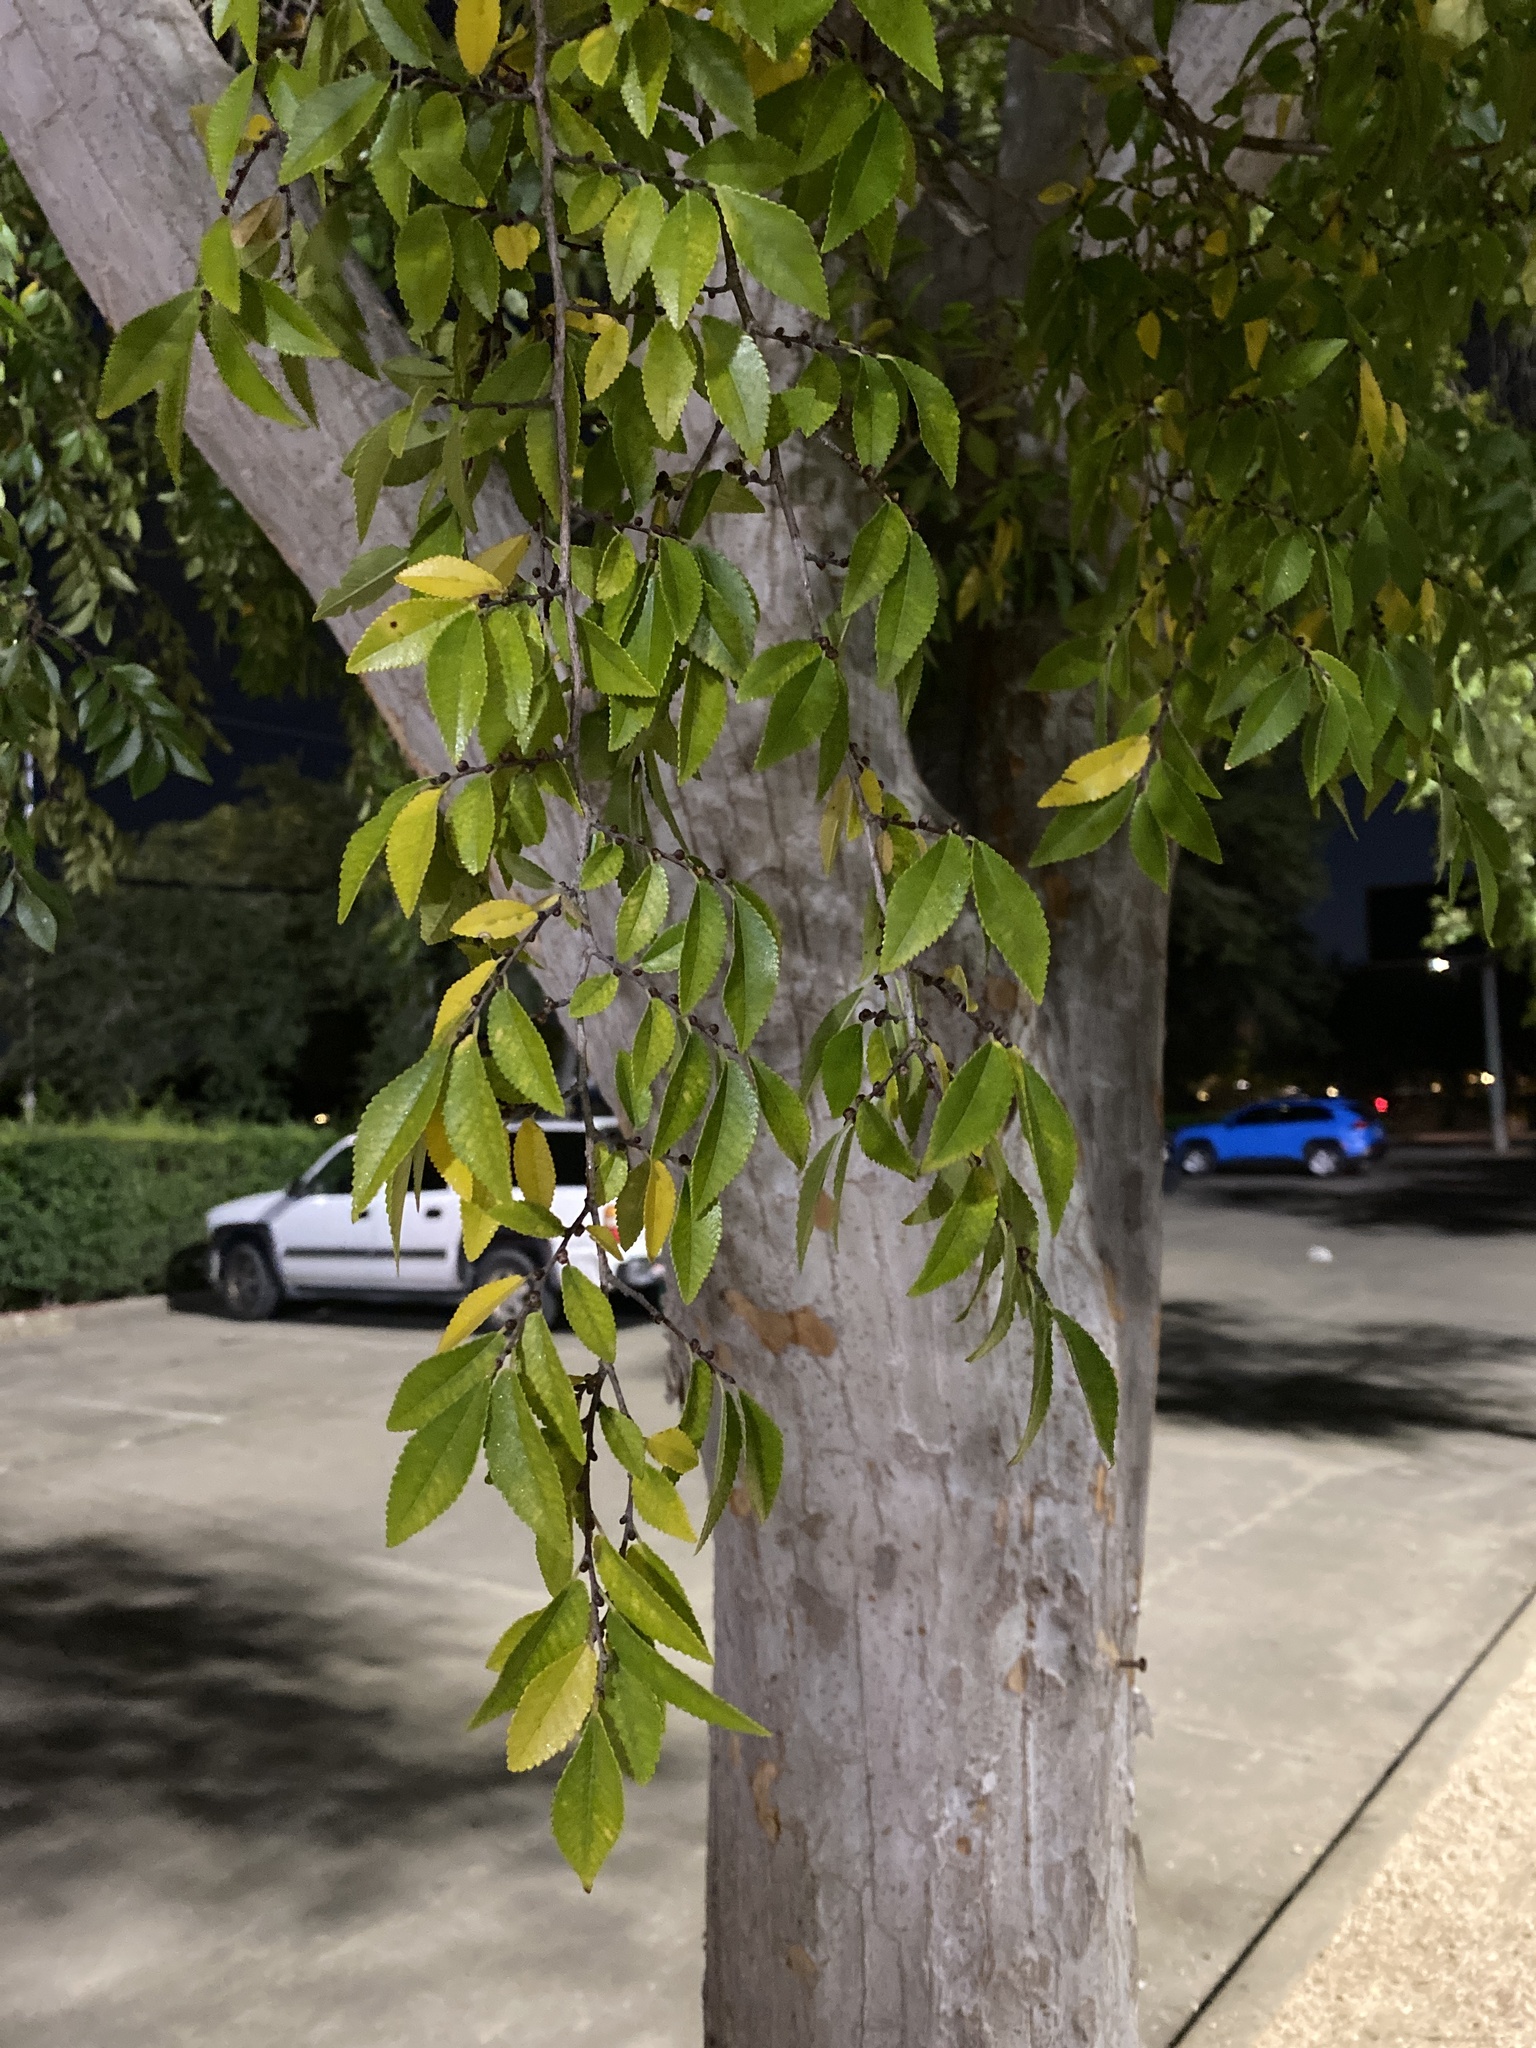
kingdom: Plantae
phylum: Tracheophyta
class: Magnoliopsida
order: Rosales
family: Ulmaceae
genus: Ulmus
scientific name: Ulmus parvifolia
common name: Chinese elm
